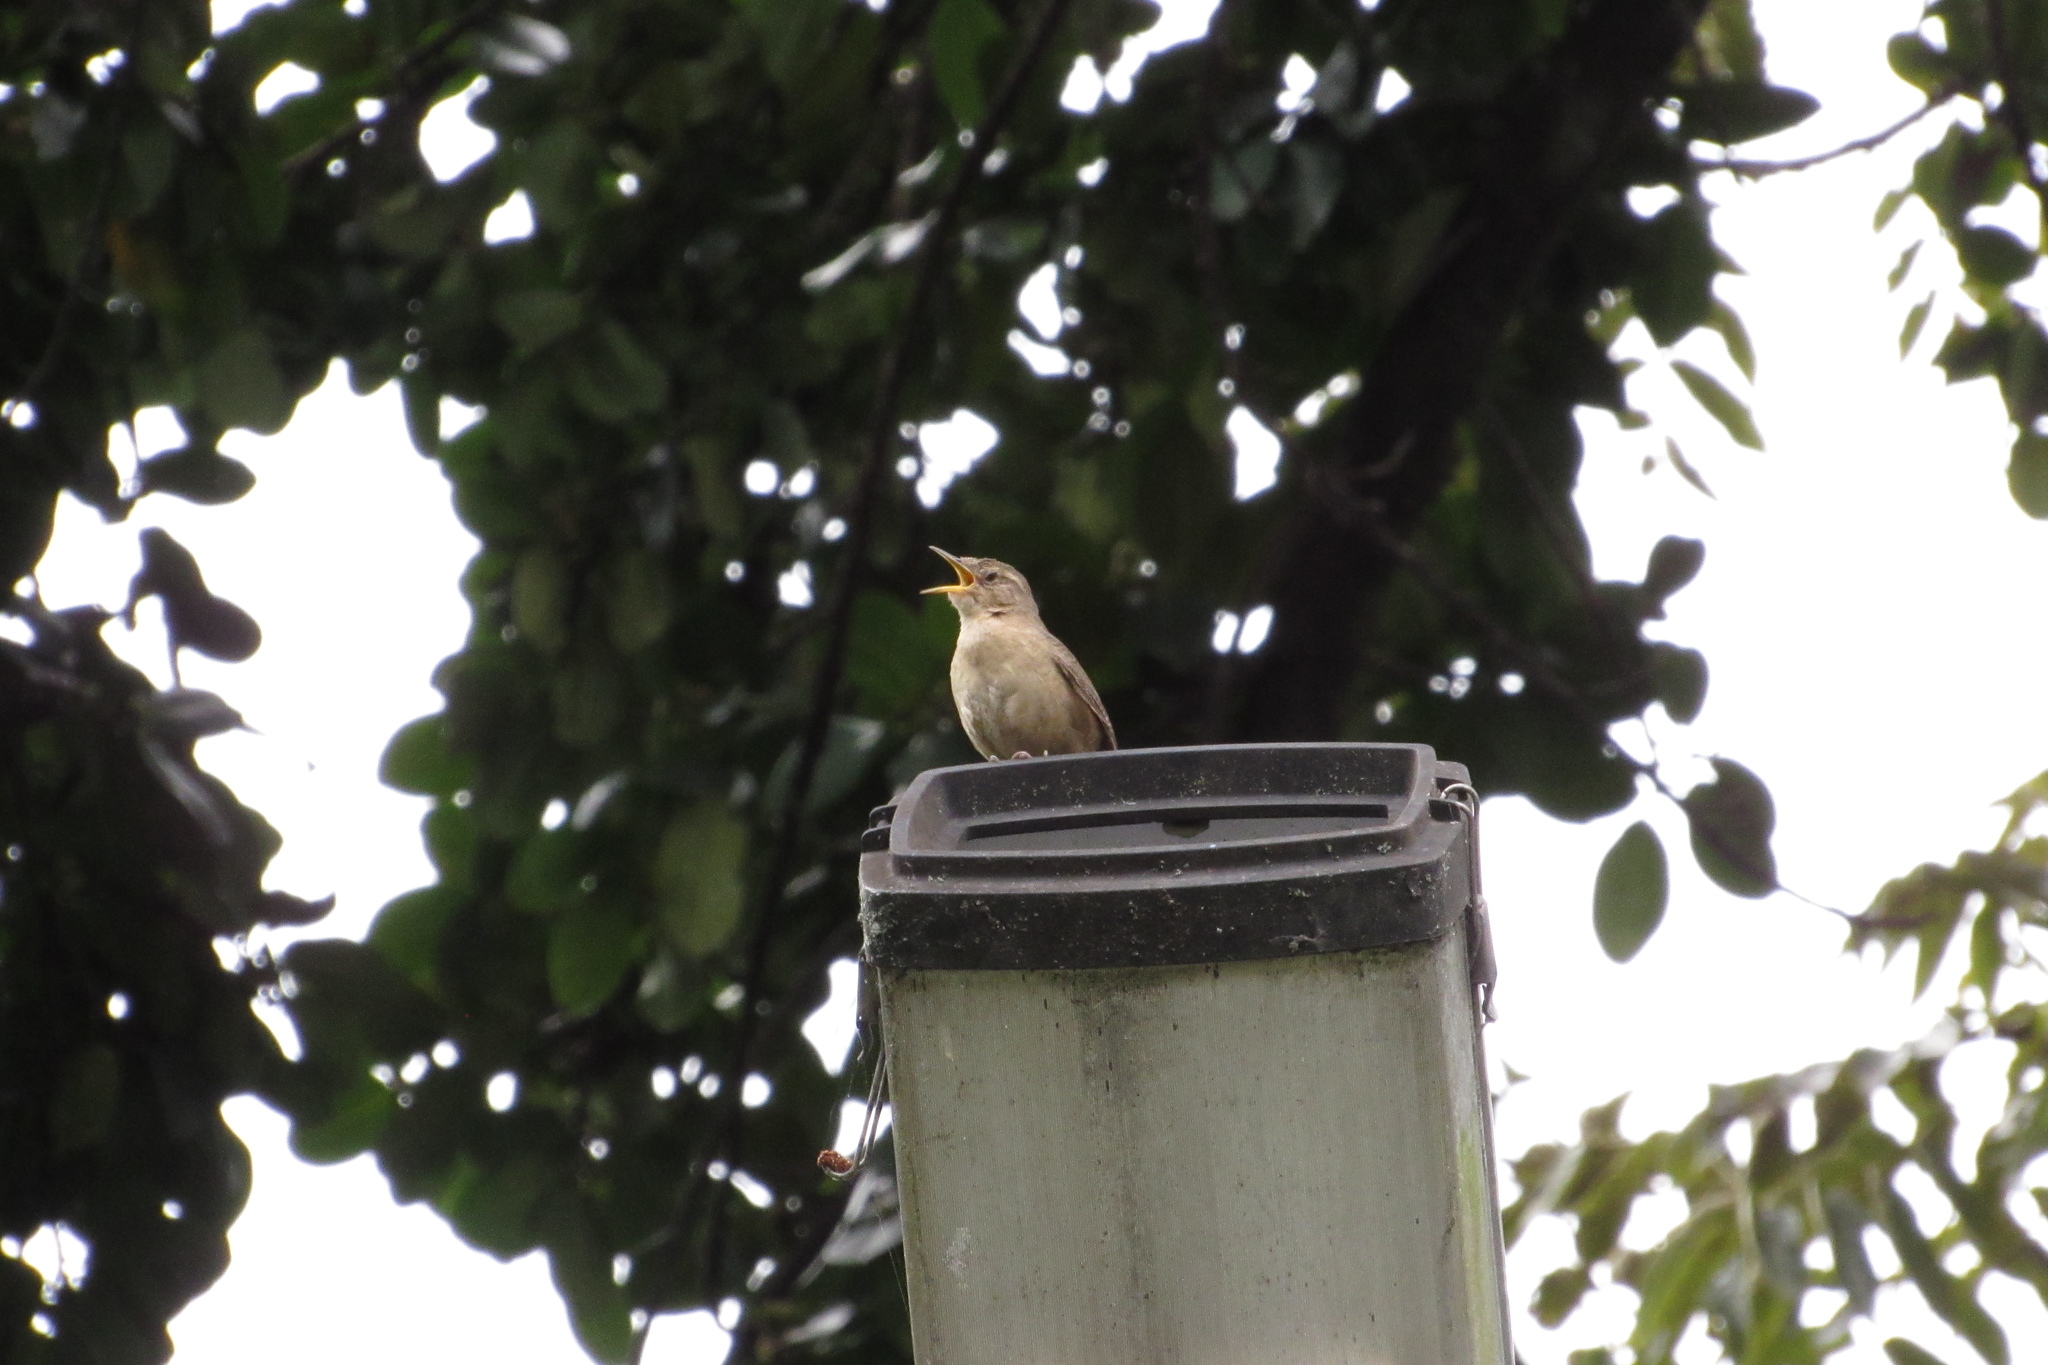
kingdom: Animalia
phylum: Chordata
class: Aves
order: Passeriformes
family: Troglodytidae
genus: Troglodytes
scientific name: Troglodytes aedon
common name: House wren
